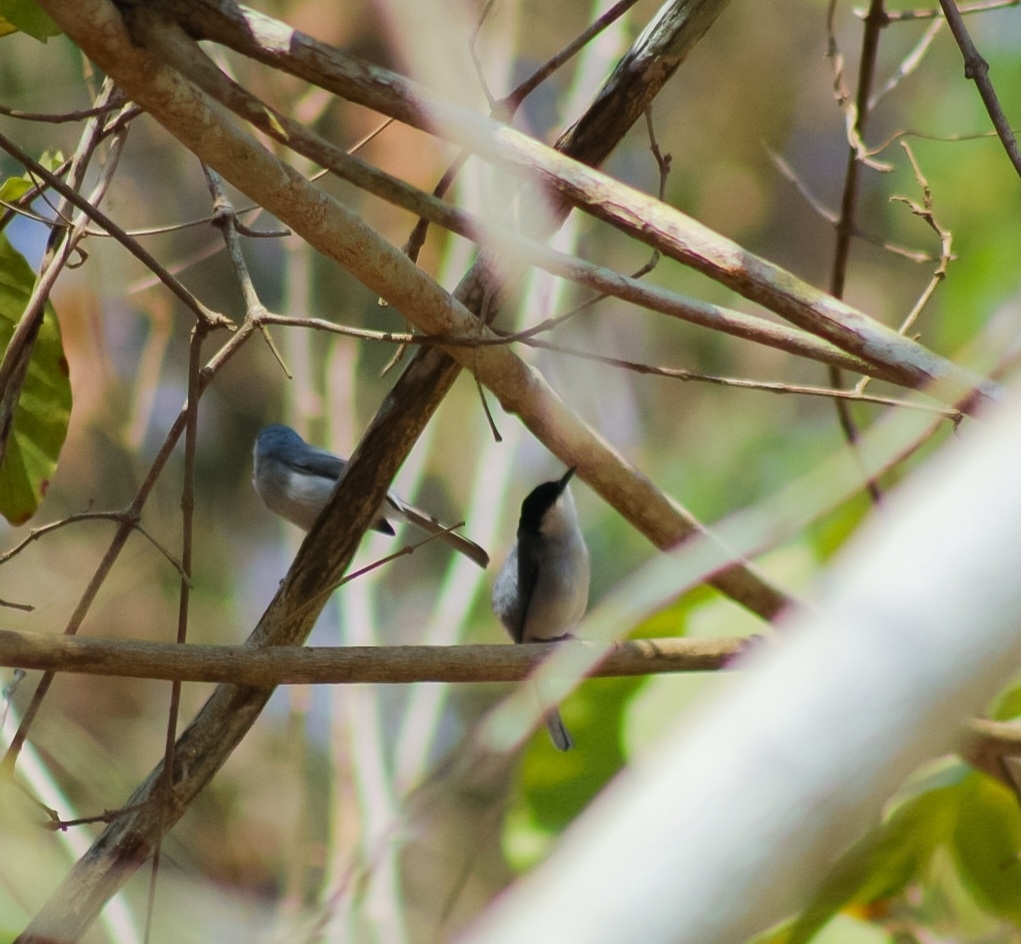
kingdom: Animalia
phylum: Chordata
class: Aves
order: Passeriformes
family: Polioptilidae
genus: Polioptila
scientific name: Polioptila albiloris
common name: White-lored gnatcatcher
